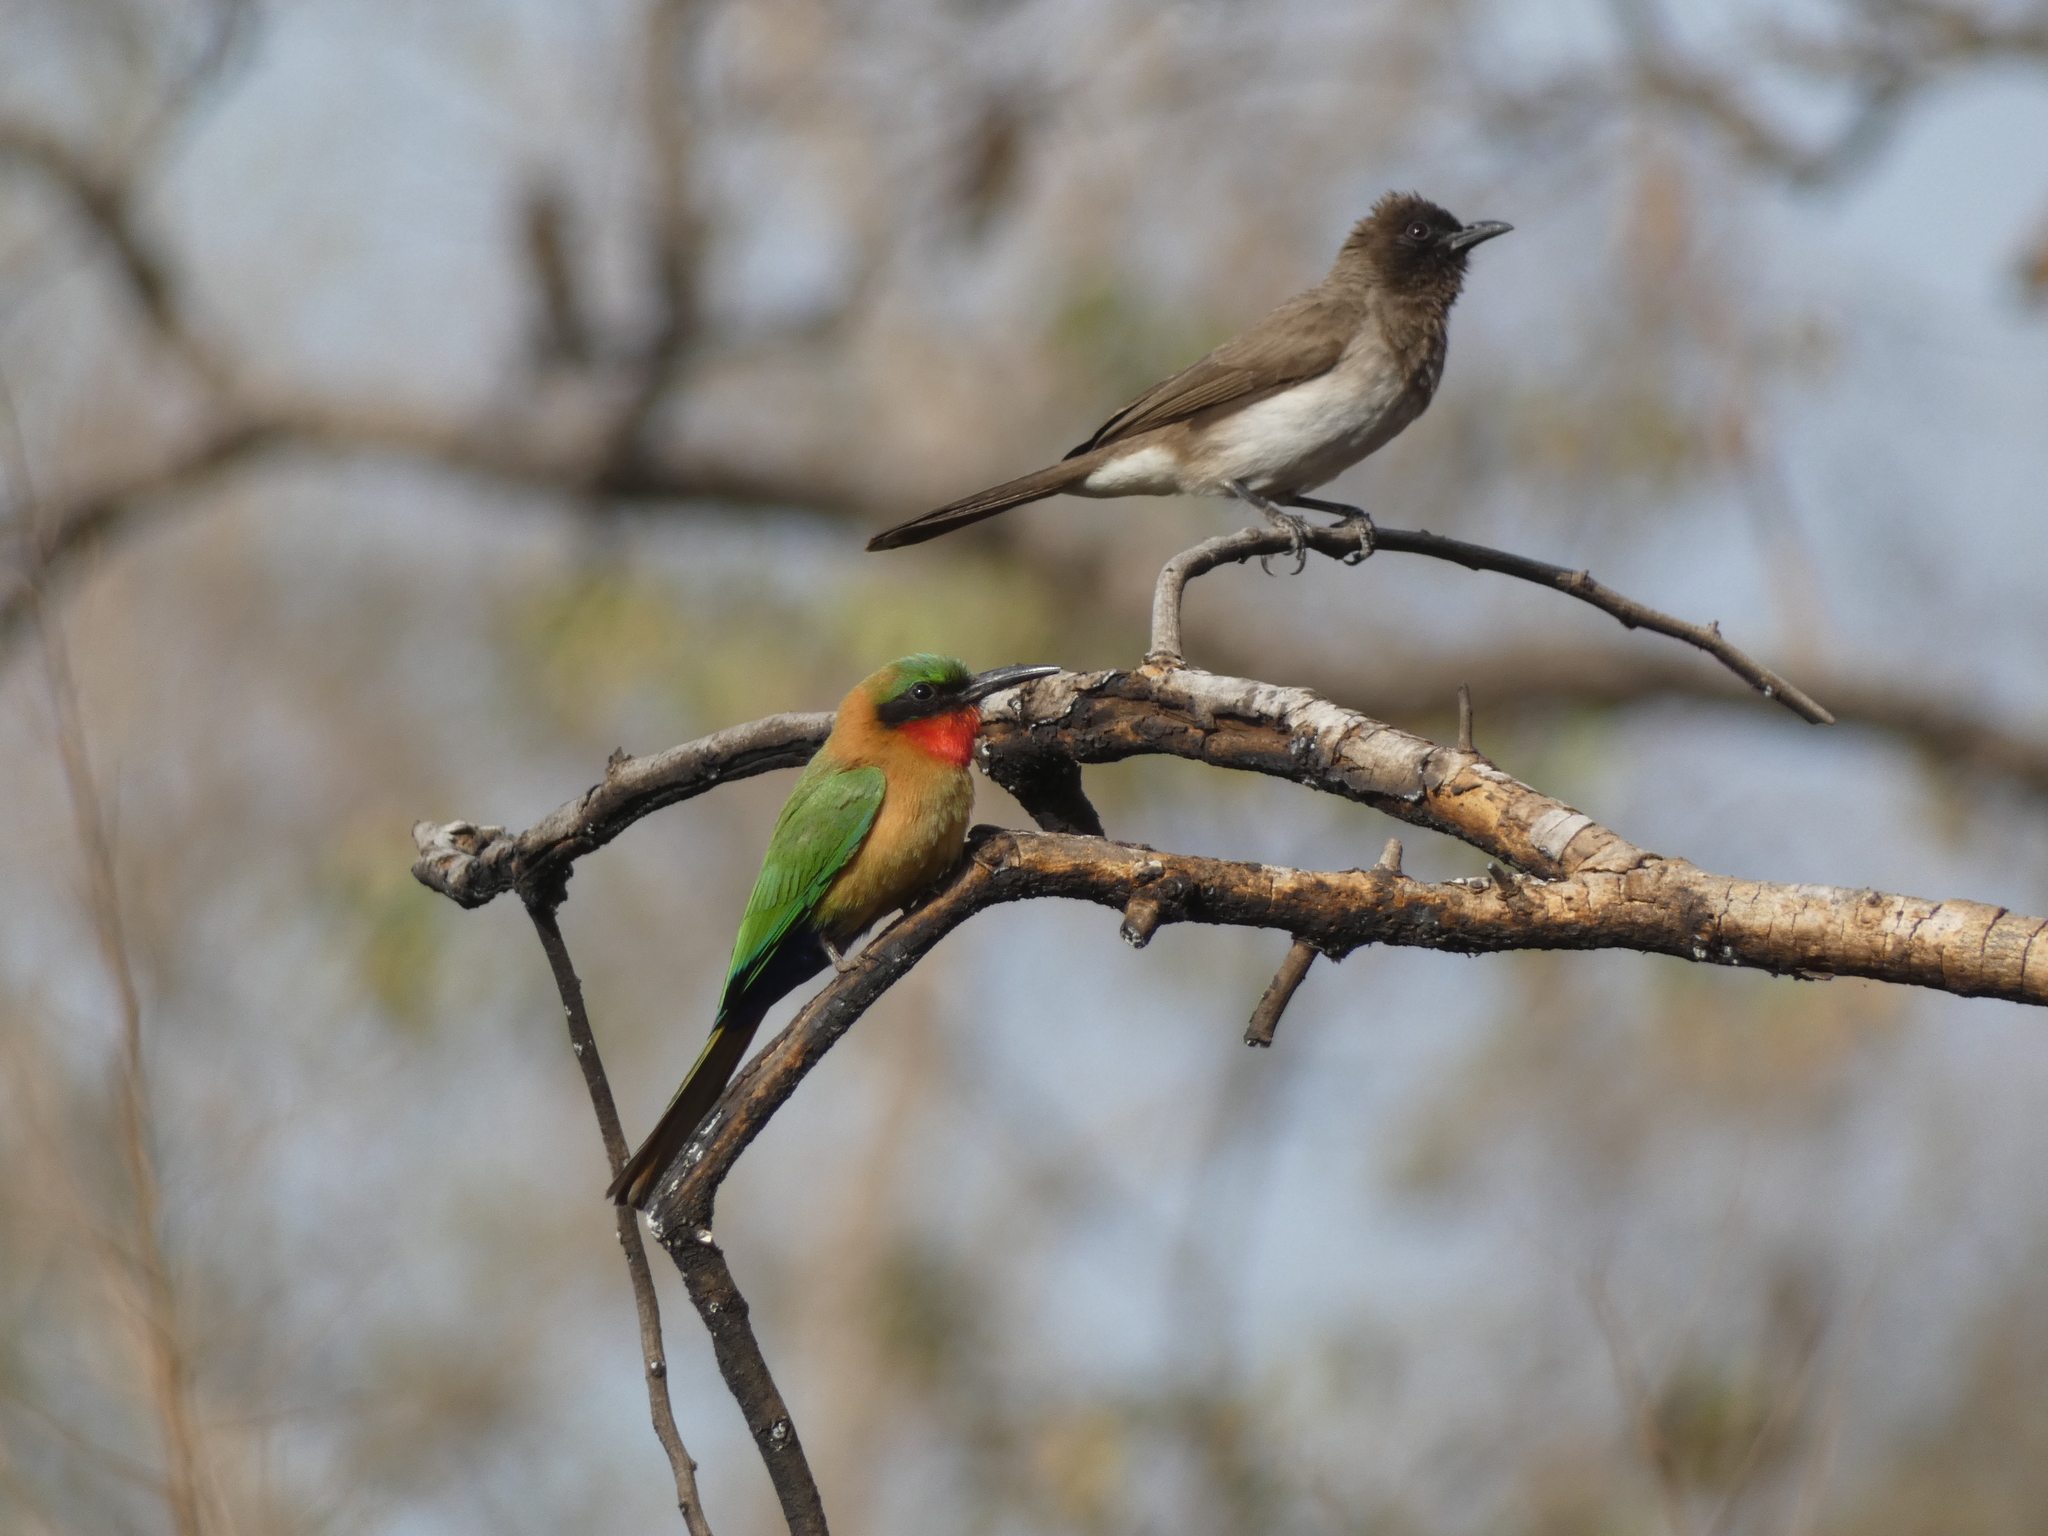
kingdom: Animalia
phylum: Chordata
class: Aves
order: Passeriformes
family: Pycnonotidae
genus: Pycnonotus
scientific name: Pycnonotus barbatus
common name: Common bulbul
